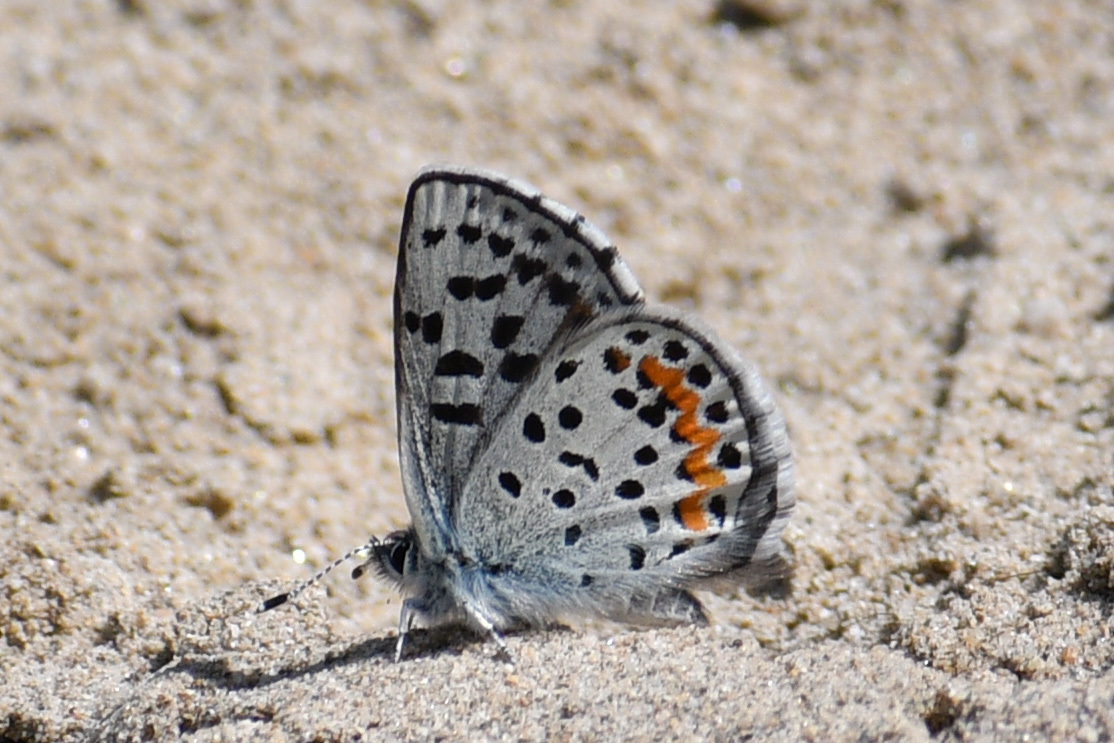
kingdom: Animalia
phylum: Arthropoda
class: Insecta
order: Lepidoptera
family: Lycaenidae
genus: Euphilotes
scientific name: Euphilotes
